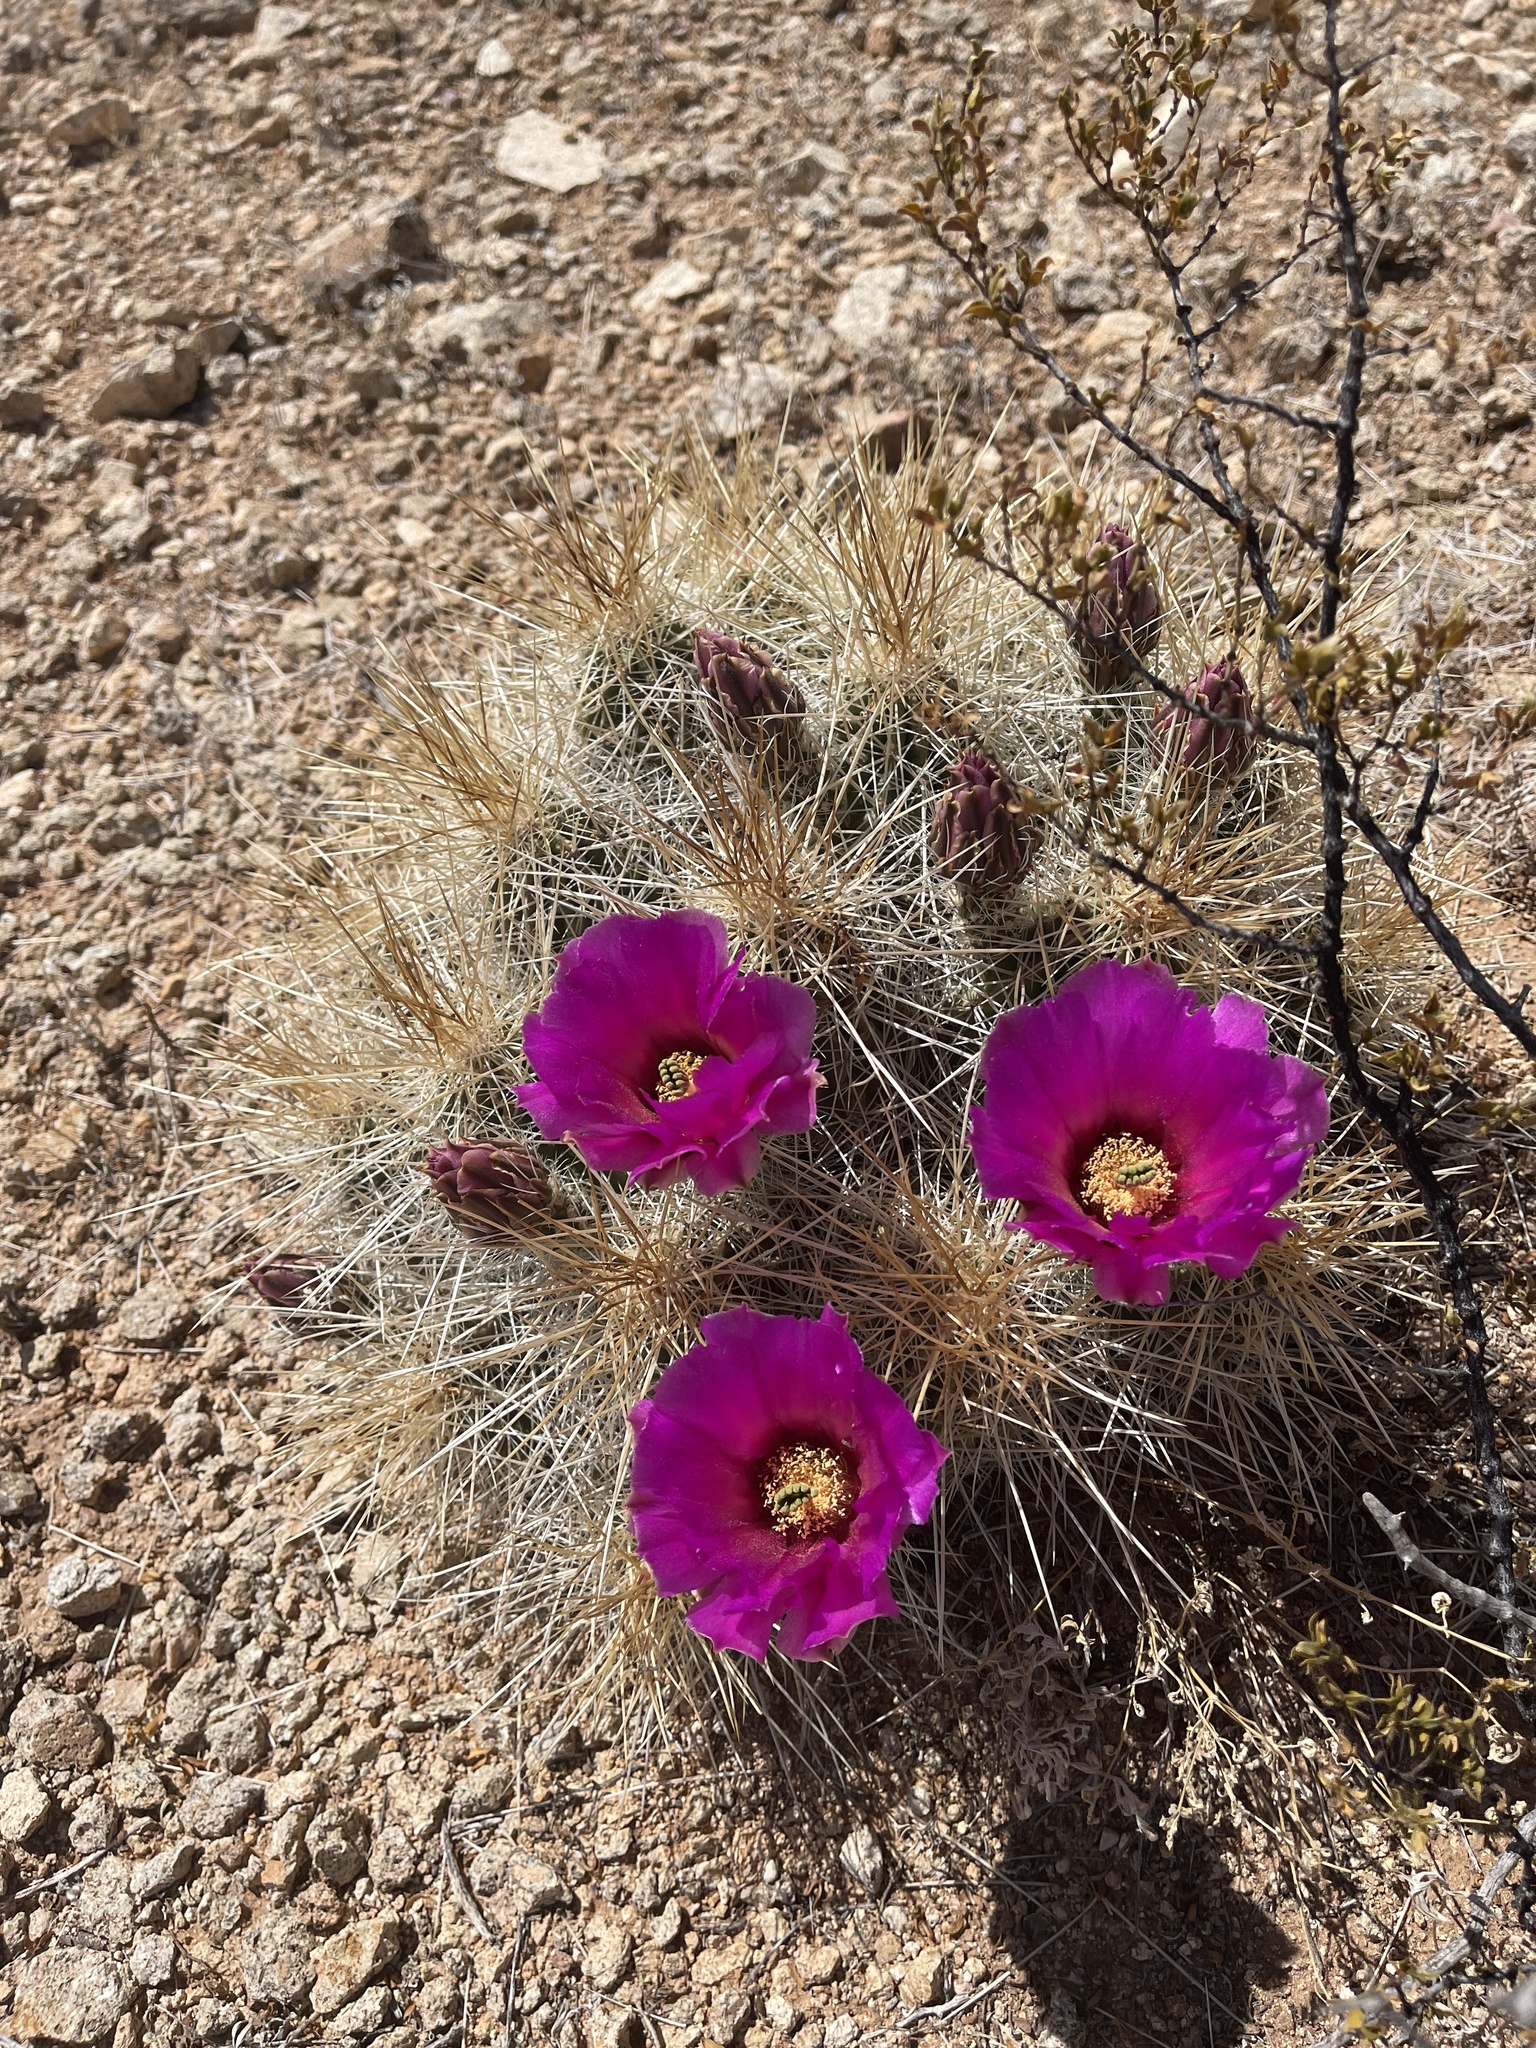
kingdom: Plantae
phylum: Tracheophyta
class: Magnoliopsida
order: Caryophyllales
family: Cactaceae
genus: Echinocereus
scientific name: Echinocereus stramineus
